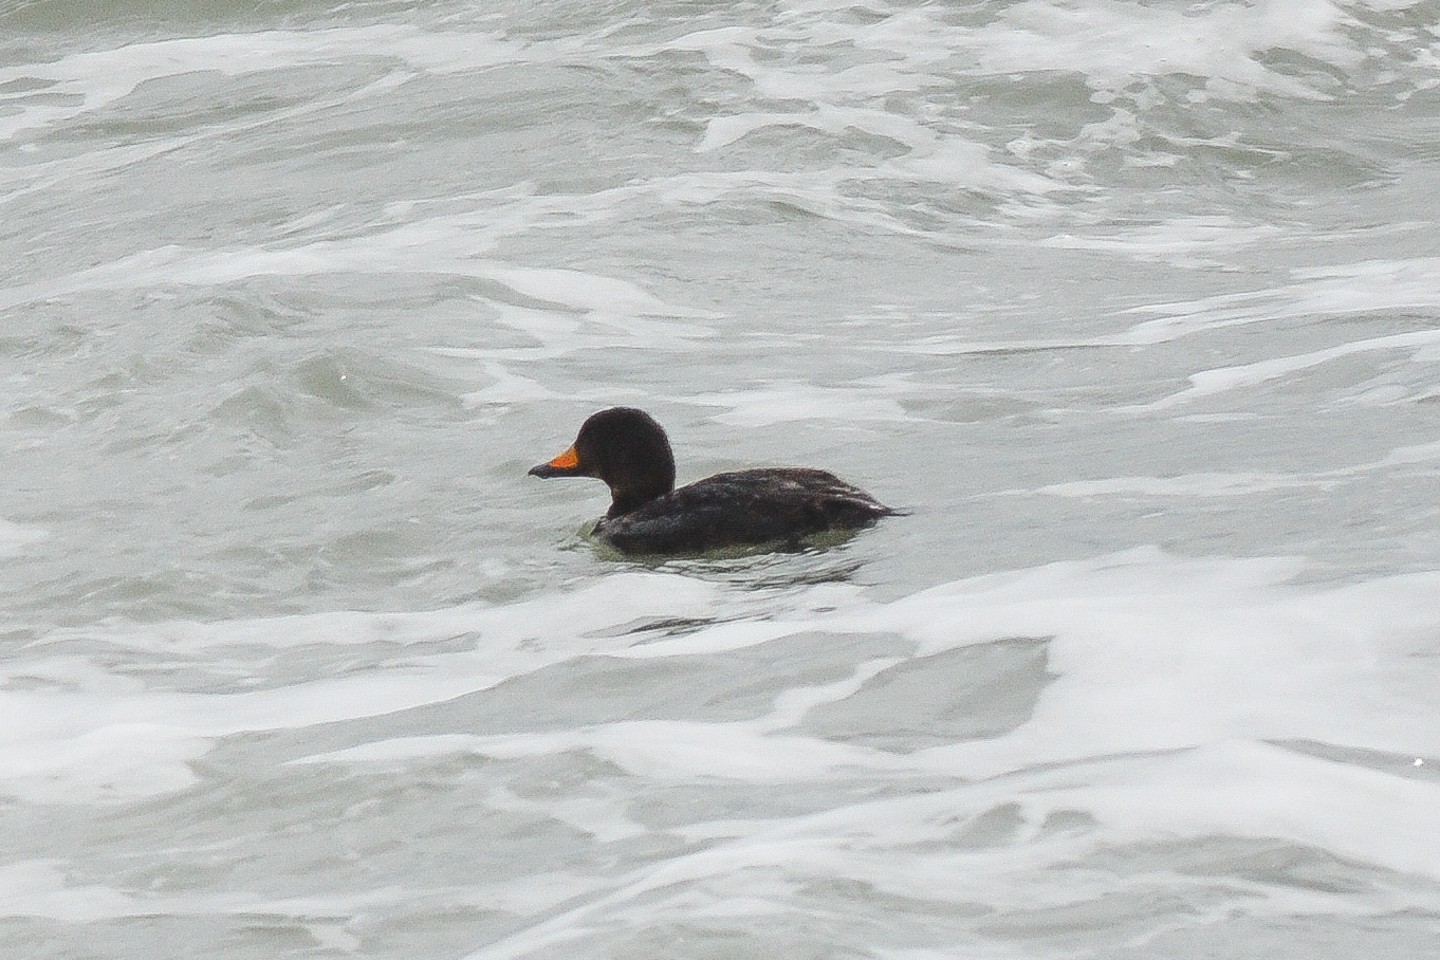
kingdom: Animalia
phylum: Chordata
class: Aves
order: Anseriformes
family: Anatidae
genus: Melanitta
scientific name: Melanitta americana
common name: Black scoter
